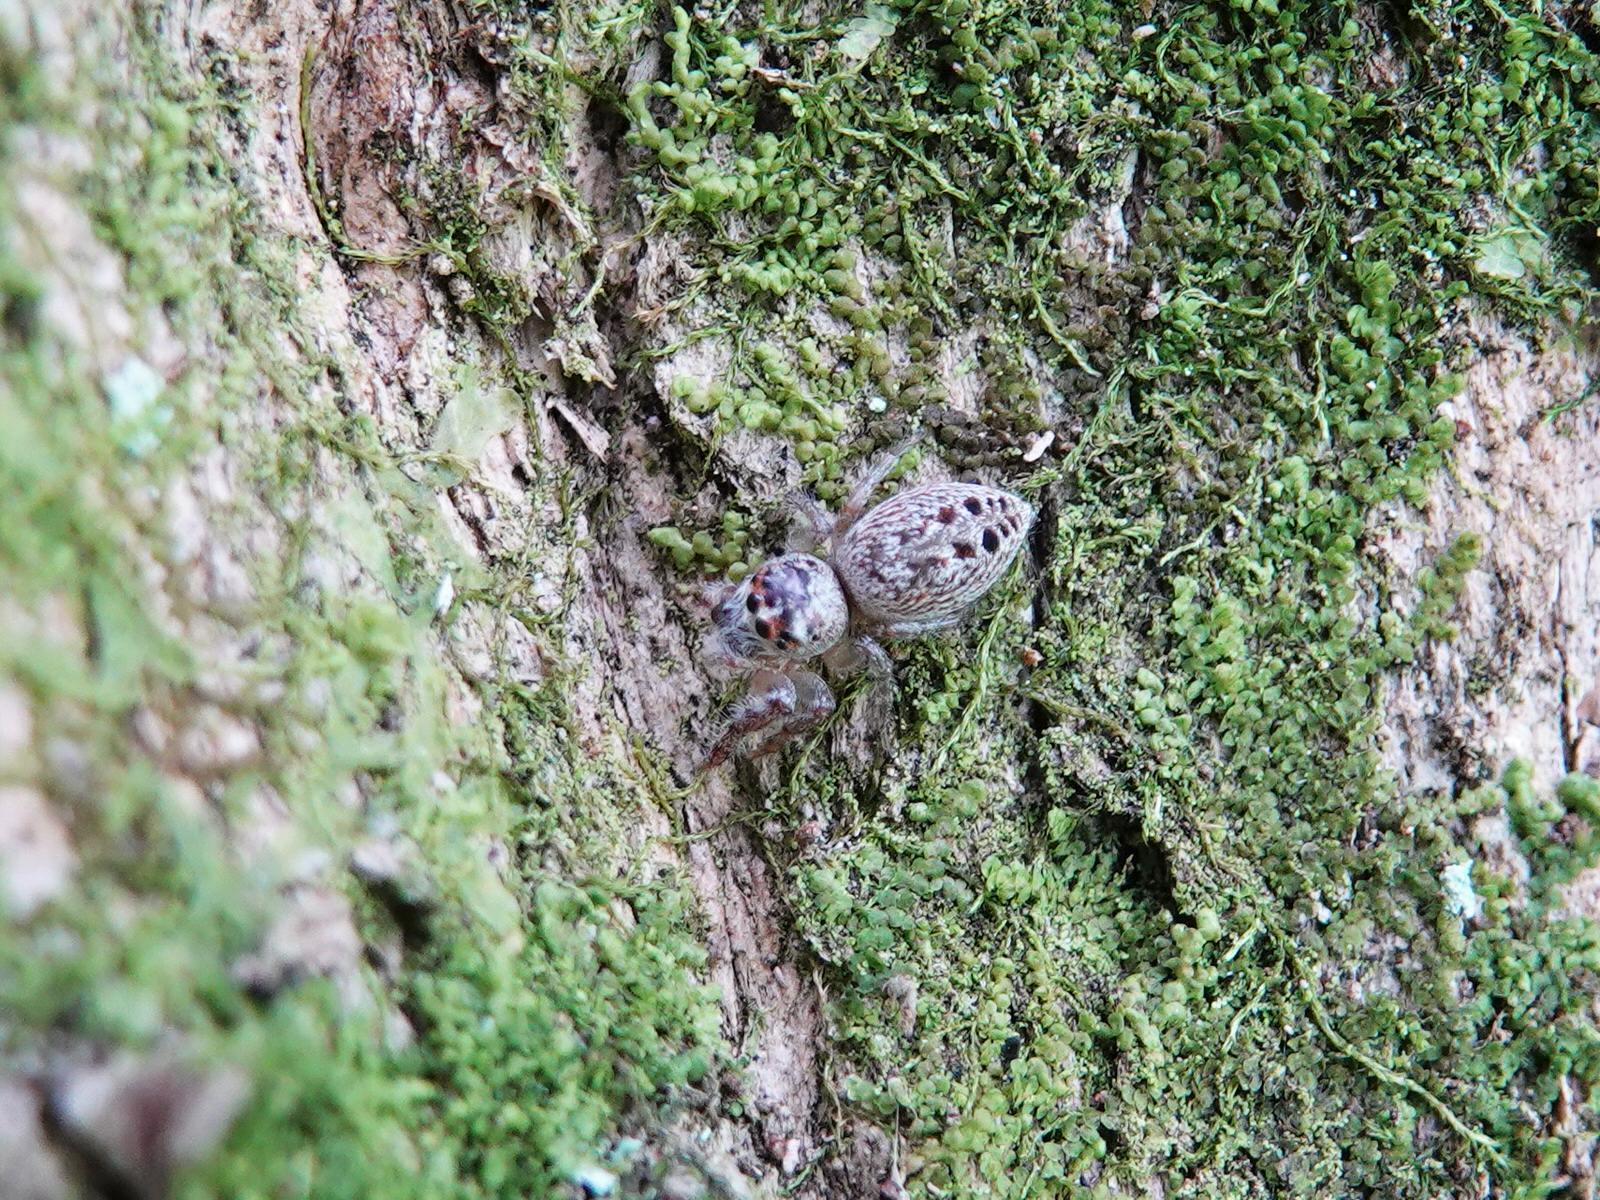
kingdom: Animalia
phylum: Arthropoda
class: Arachnida
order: Araneae
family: Salticidae
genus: Opisthoncus
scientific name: Opisthoncus polyphemus
